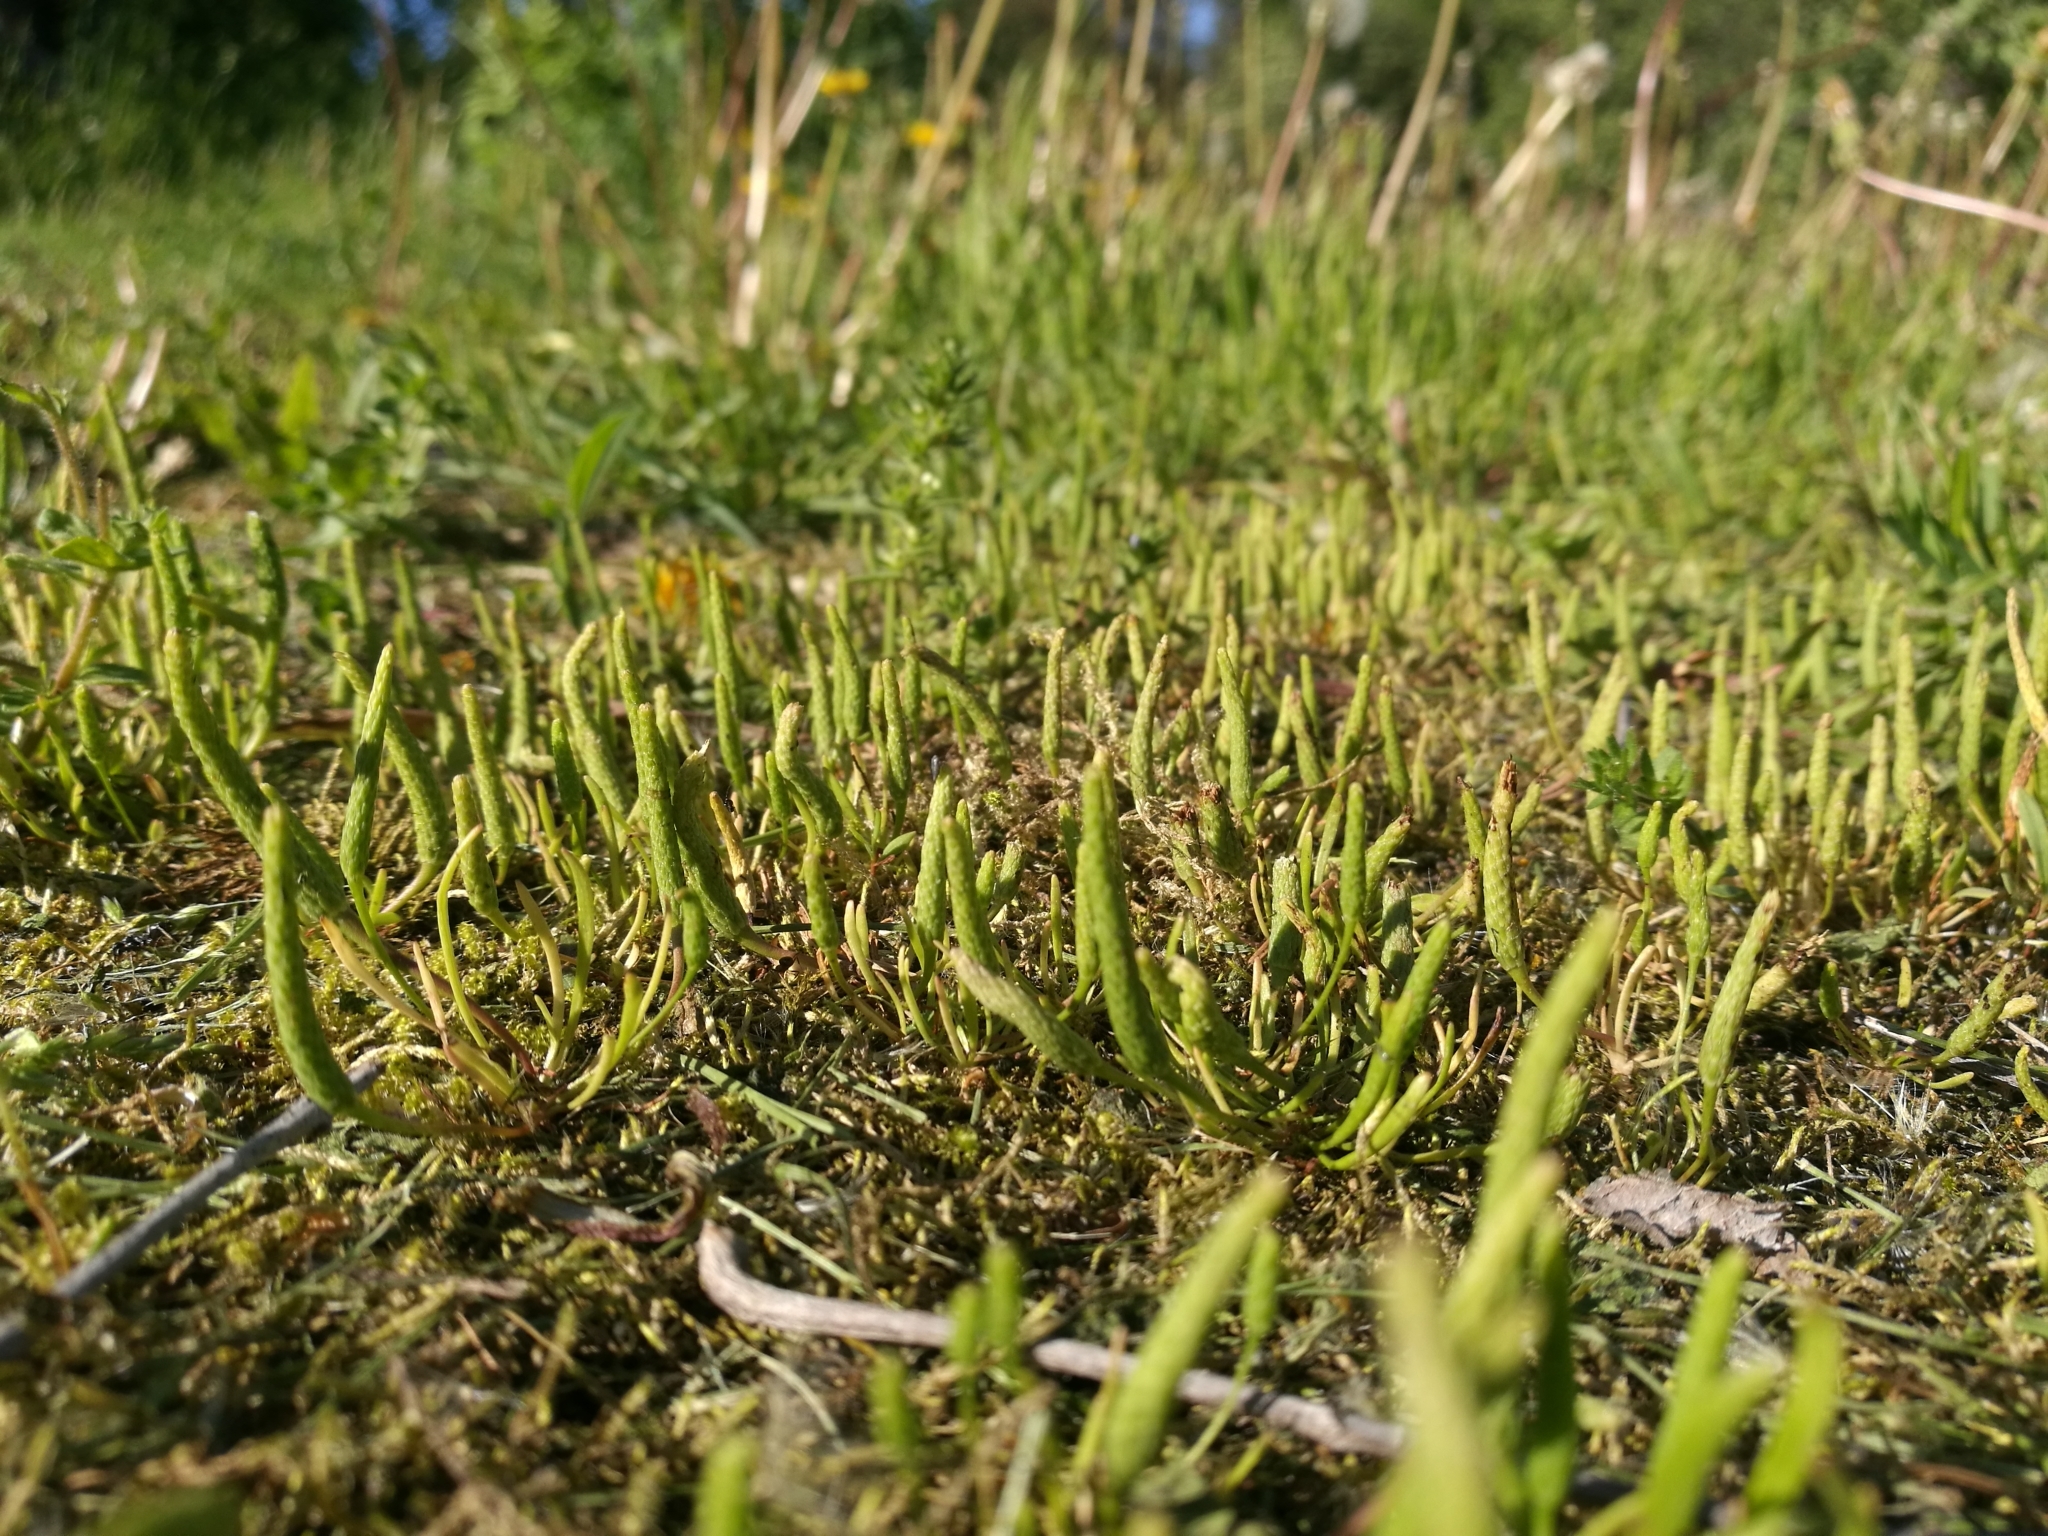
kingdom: Plantae
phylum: Tracheophyta
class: Magnoliopsida
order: Ranunculales
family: Ranunculaceae
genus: Myosurus
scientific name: Myosurus minimus
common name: Mousetail
